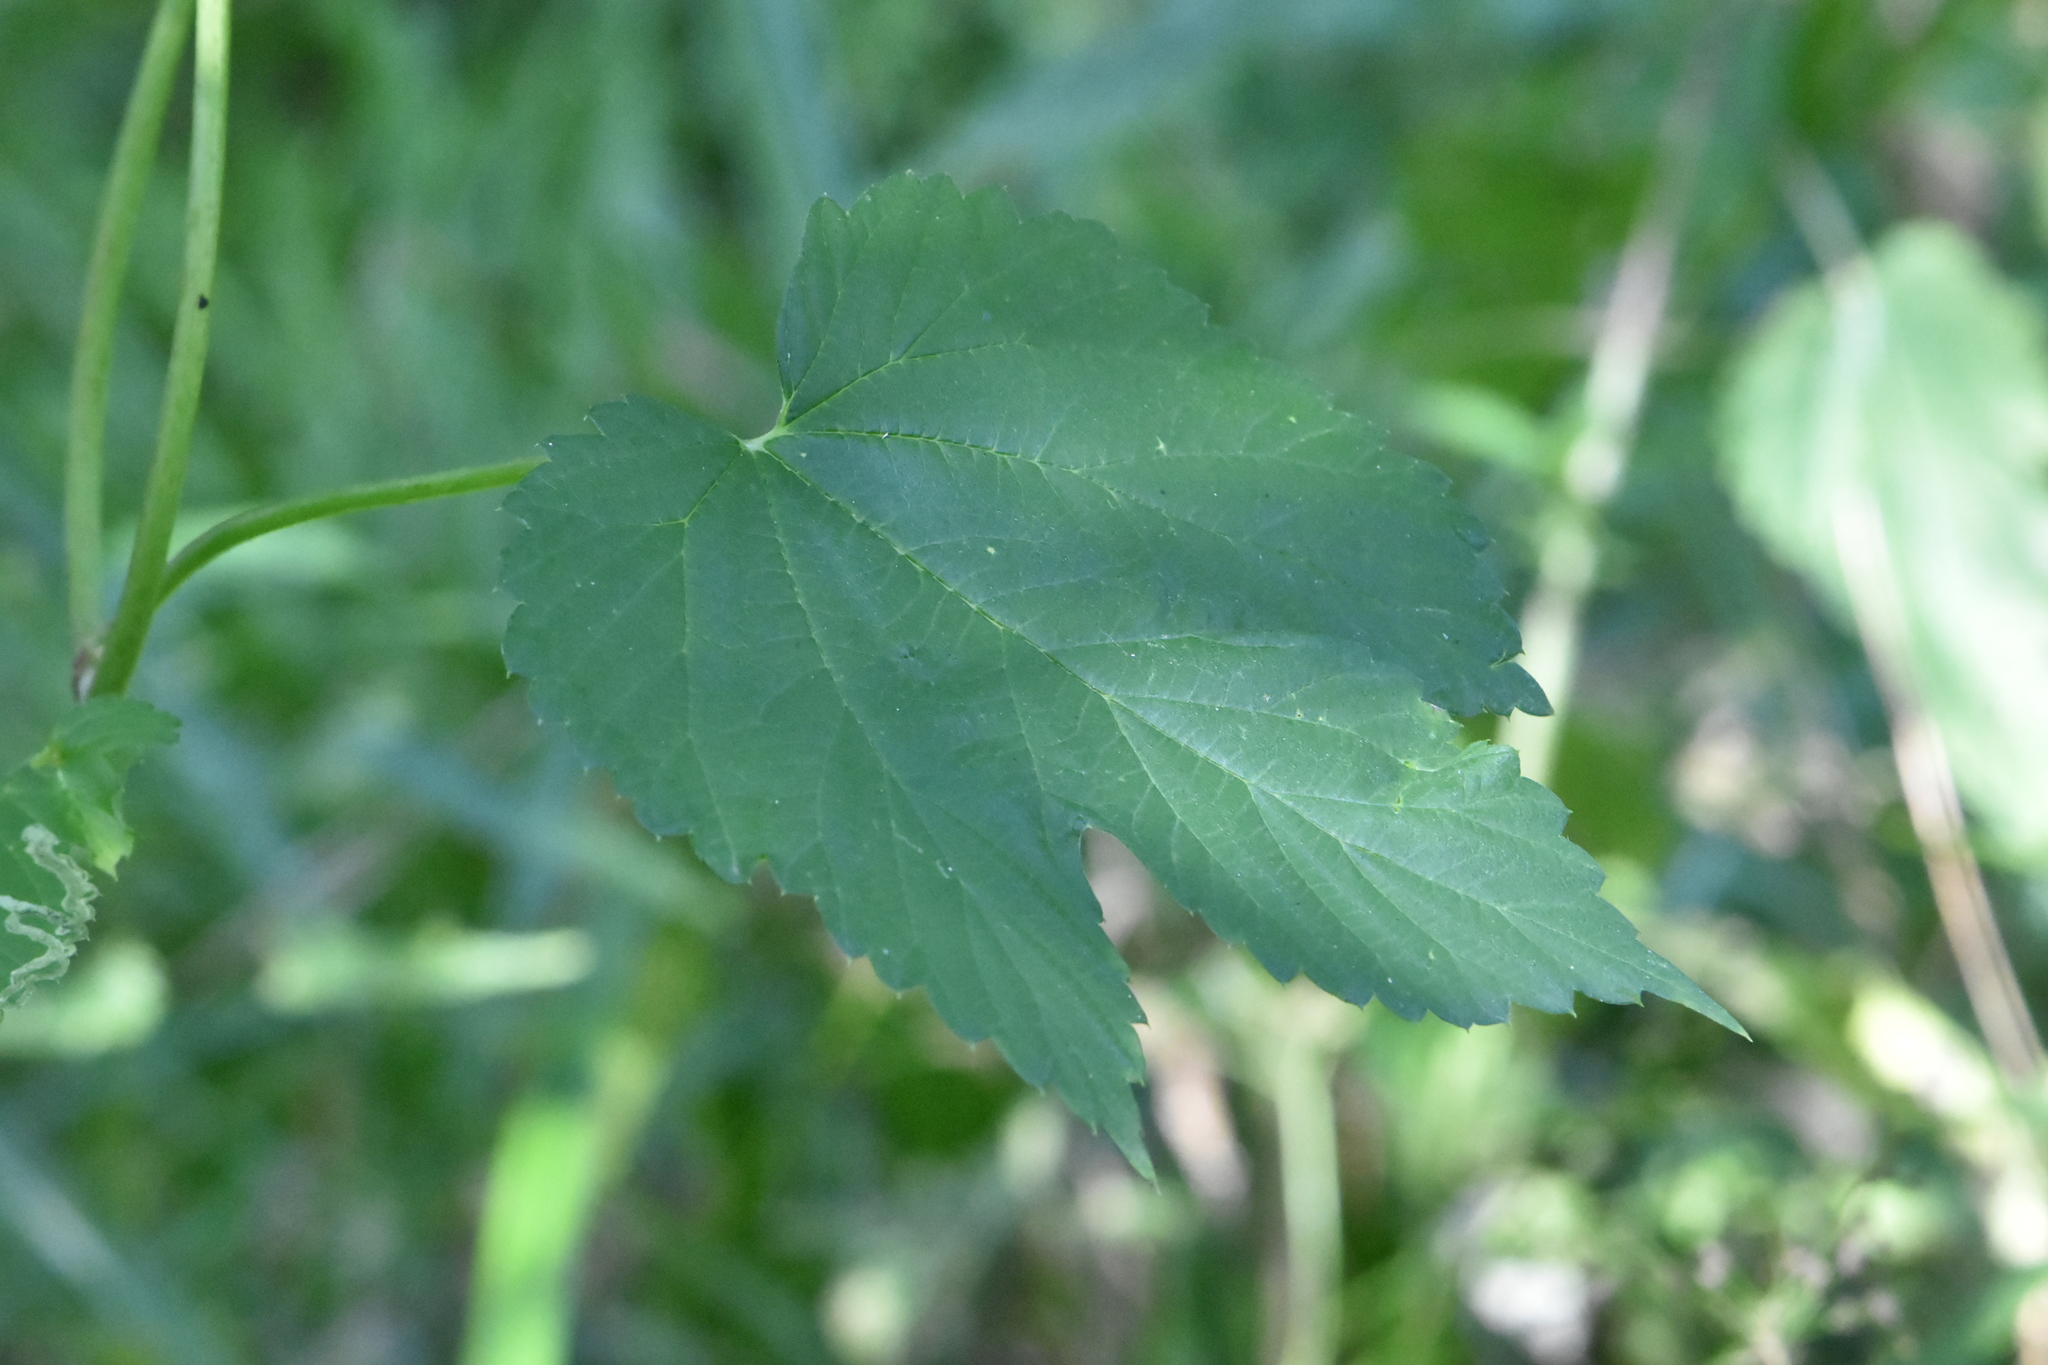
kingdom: Plantae
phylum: Tracheophyta
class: Magnoliopsida
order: Rosales
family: Cannabaceae
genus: Humulus
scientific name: Humulus lupulus
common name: Hop
